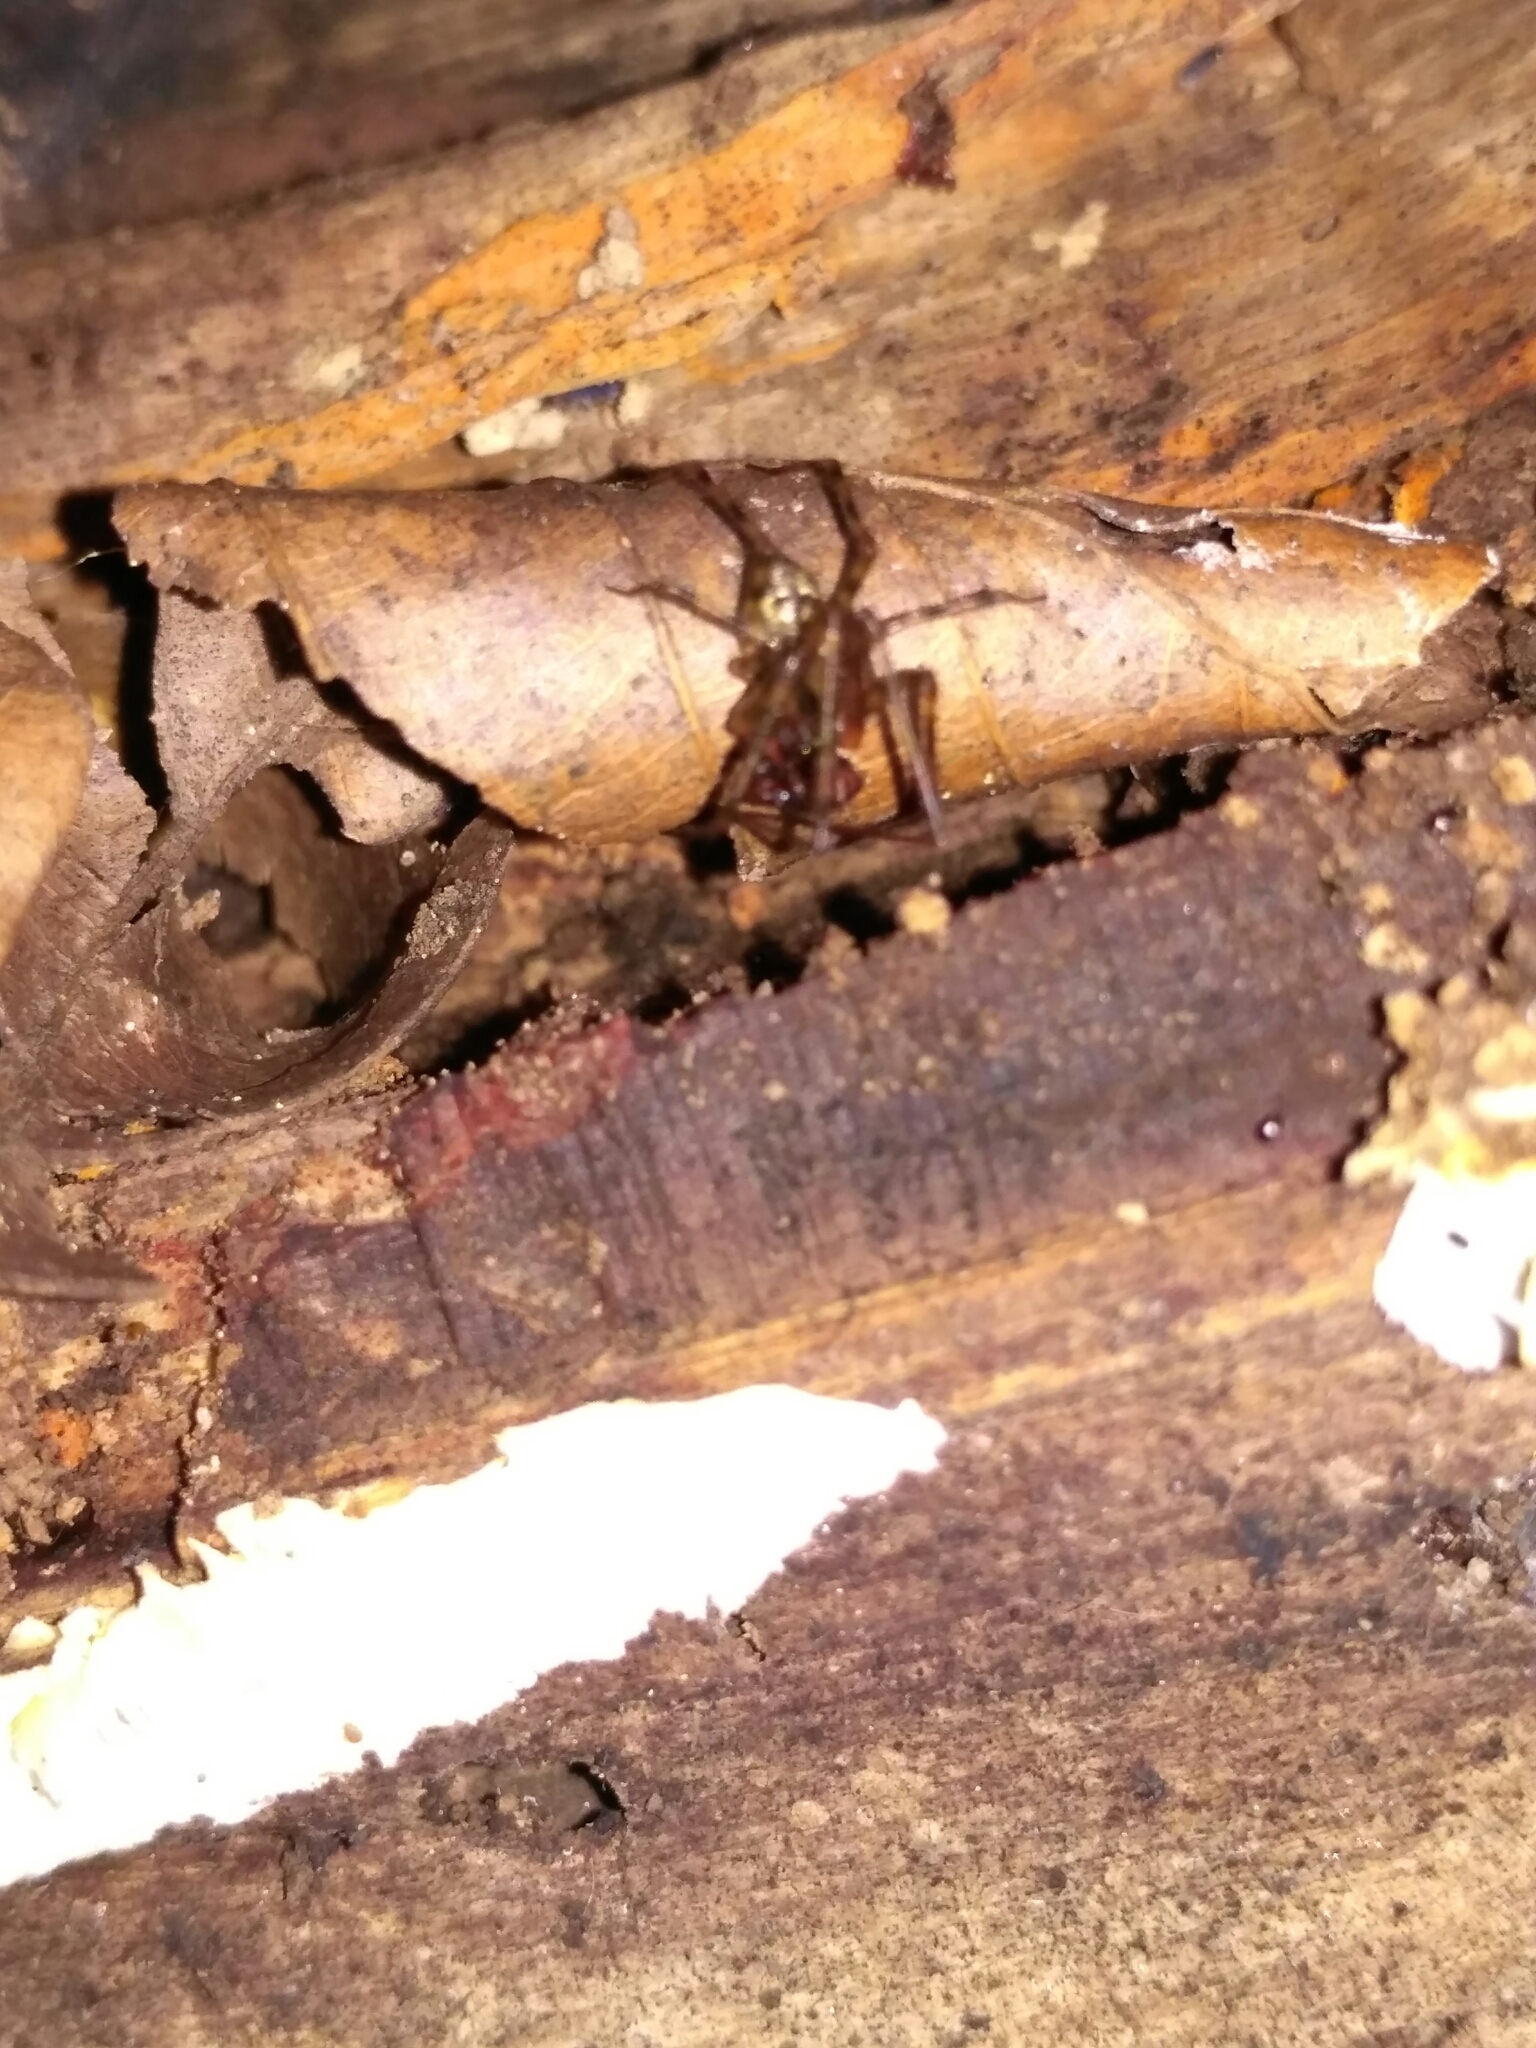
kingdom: Animalia
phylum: Arthropoda
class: Arachnida
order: Araneae
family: Linyphiidae
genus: Labulla
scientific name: Labulla thoracica
